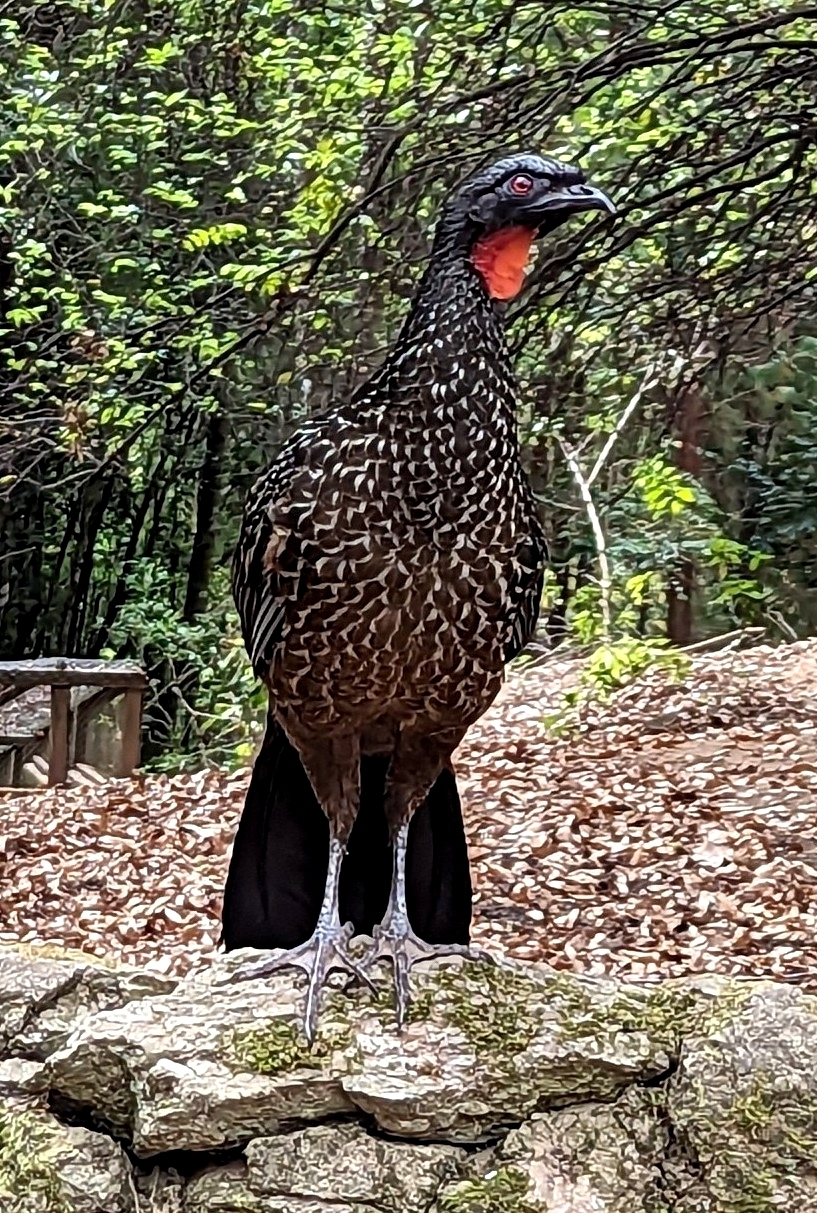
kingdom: Animalia
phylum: Chordata
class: Aves
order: Galliformes
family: Cracidae
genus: Penelope
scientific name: Penelope obscura
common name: Dusky-legged guan
